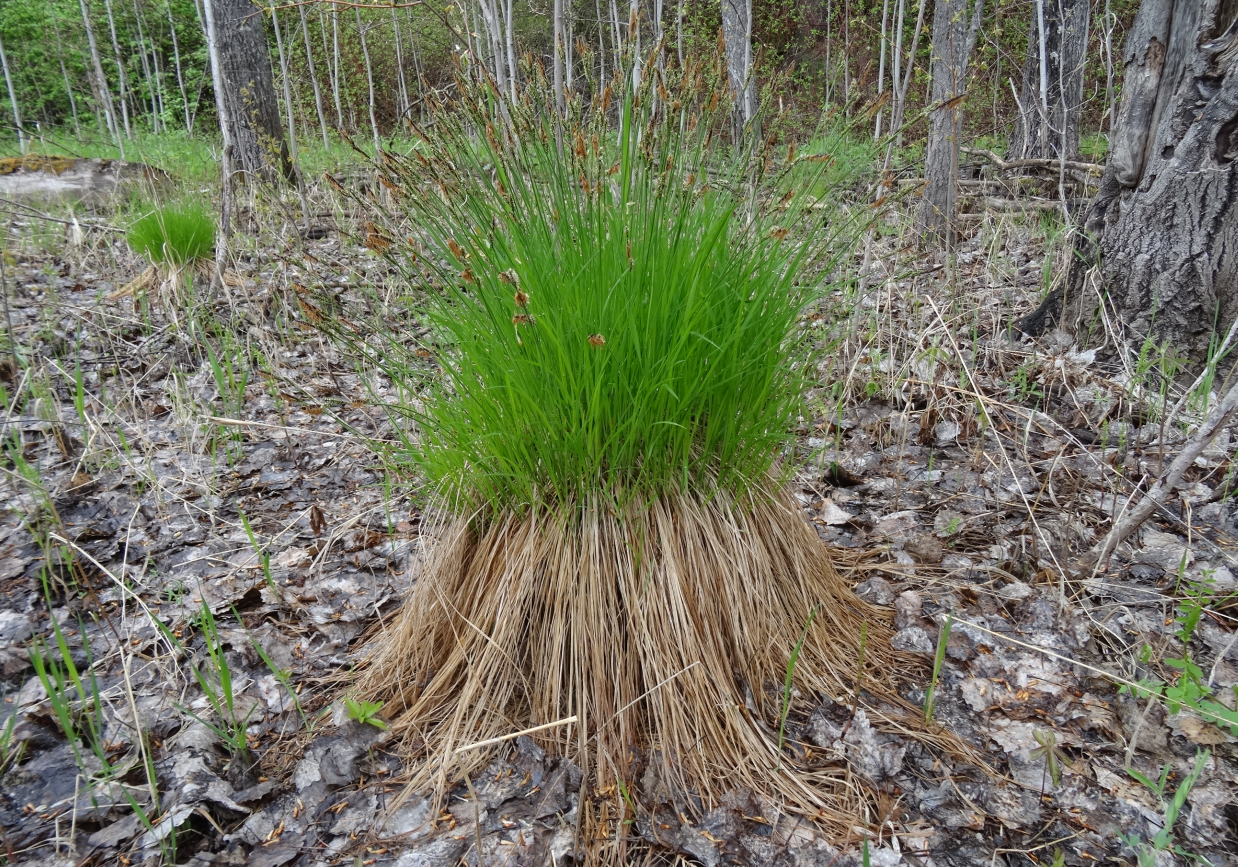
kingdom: Plantae
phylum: Tracheophyta
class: Liliopsida
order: Poales
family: Cyperaceae
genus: Carex
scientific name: Carex cespitosa
